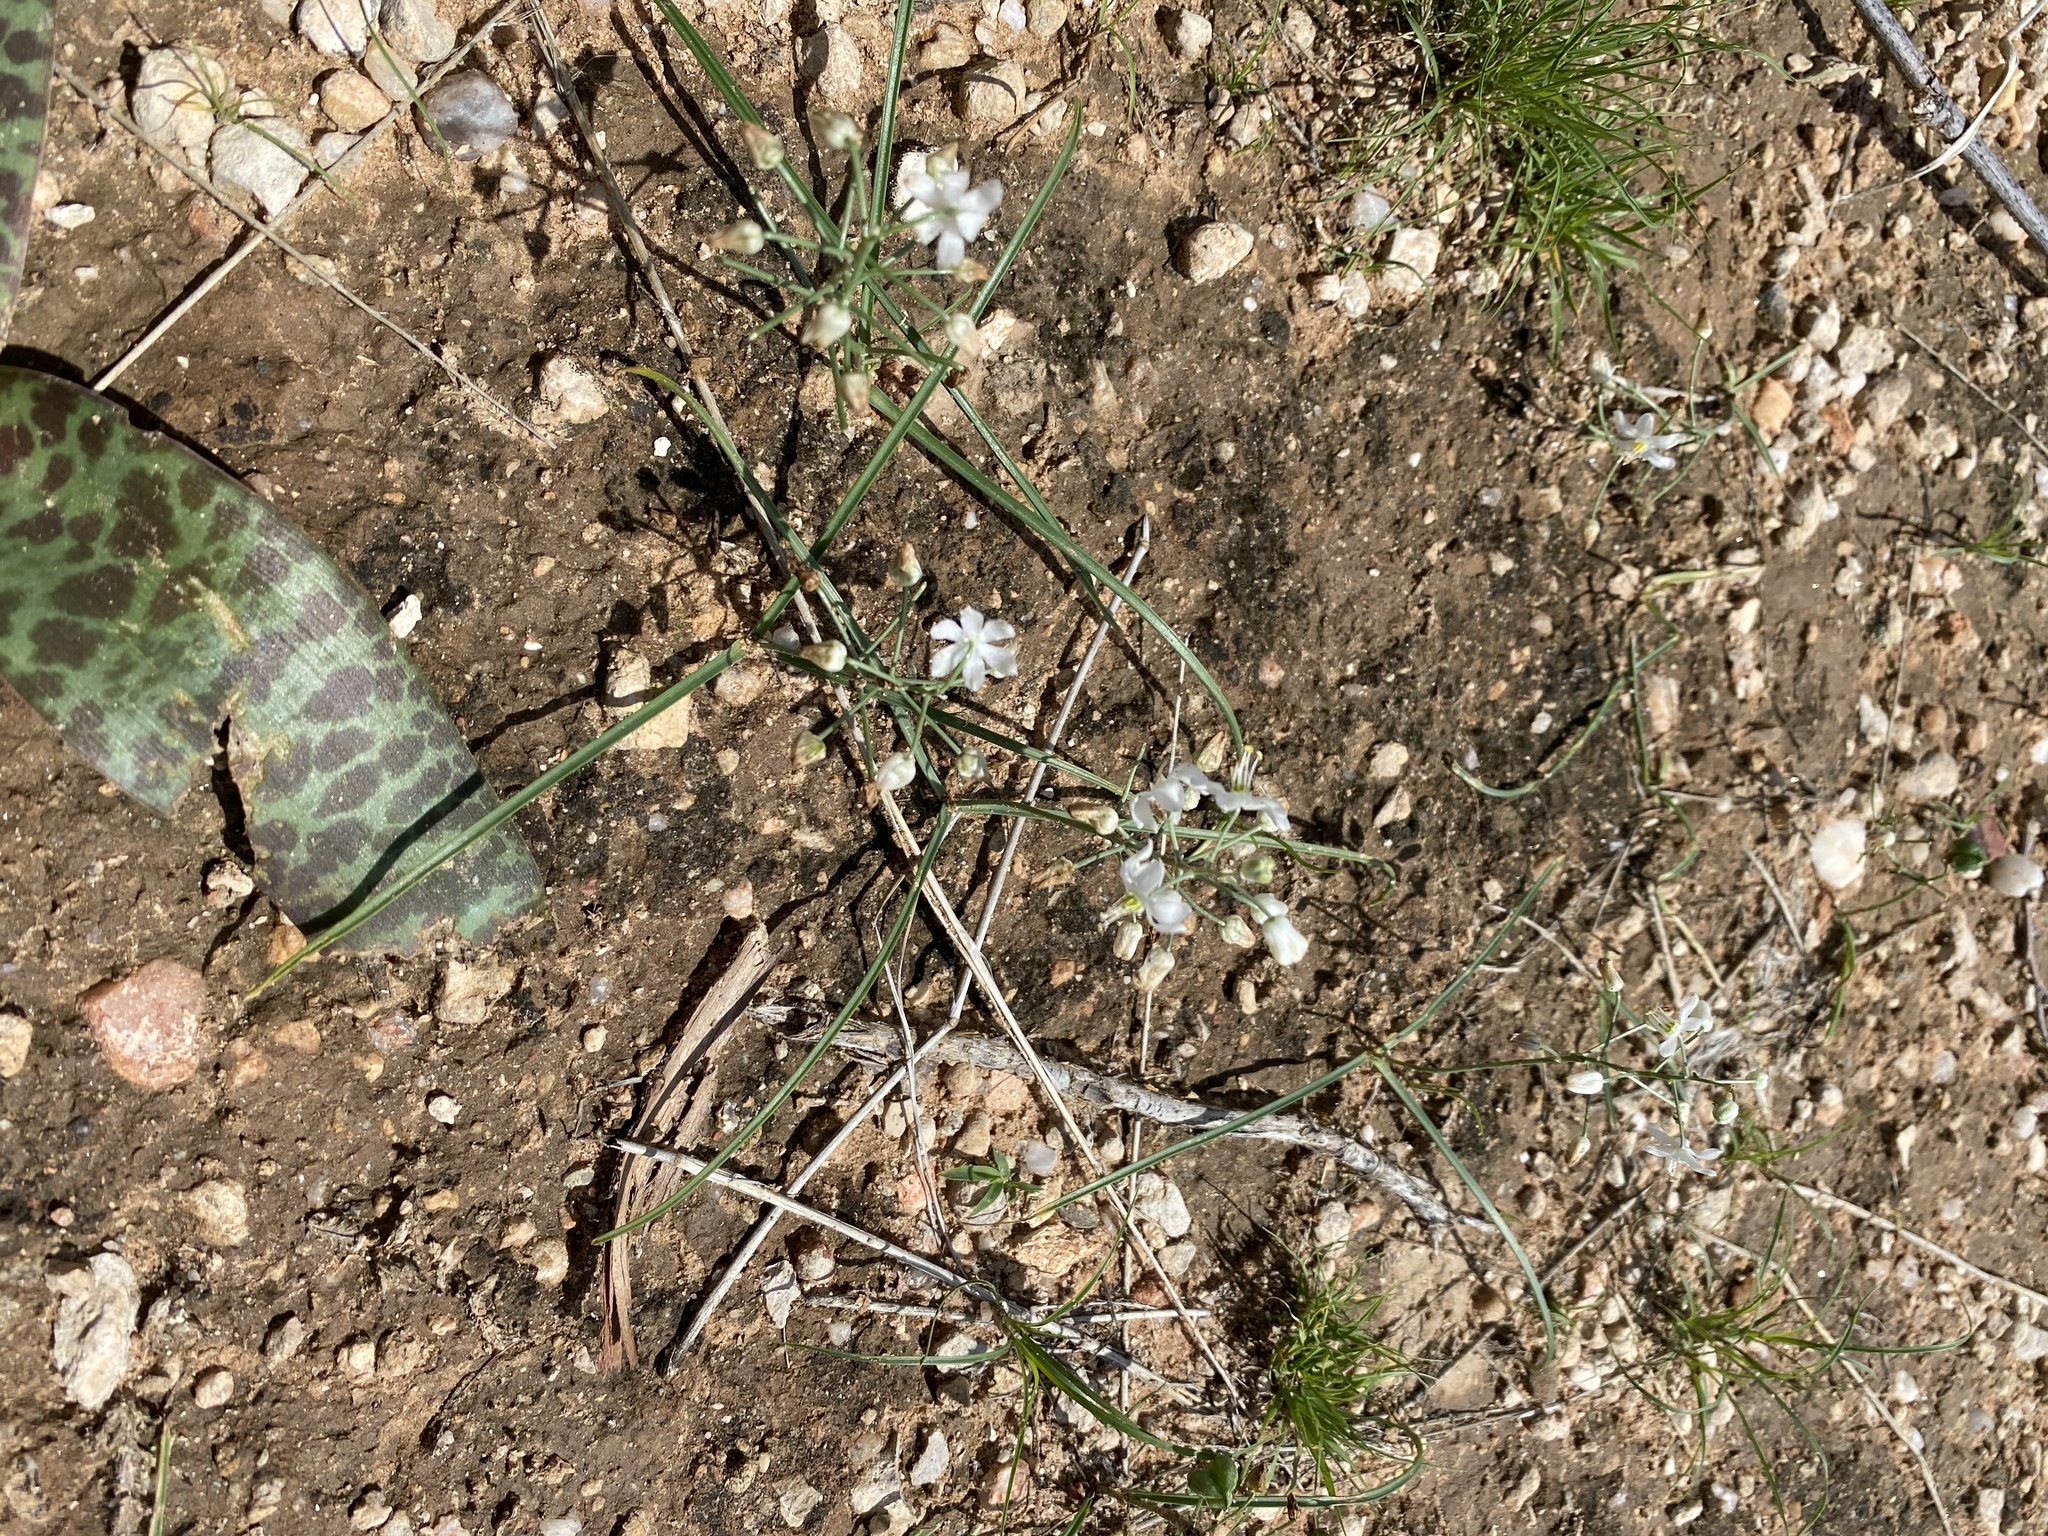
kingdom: Plantae
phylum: Tracheophyta
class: Liliopsida
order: Asparagales
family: Asparagaceae
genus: Albuca
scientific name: Albuca stapffii
